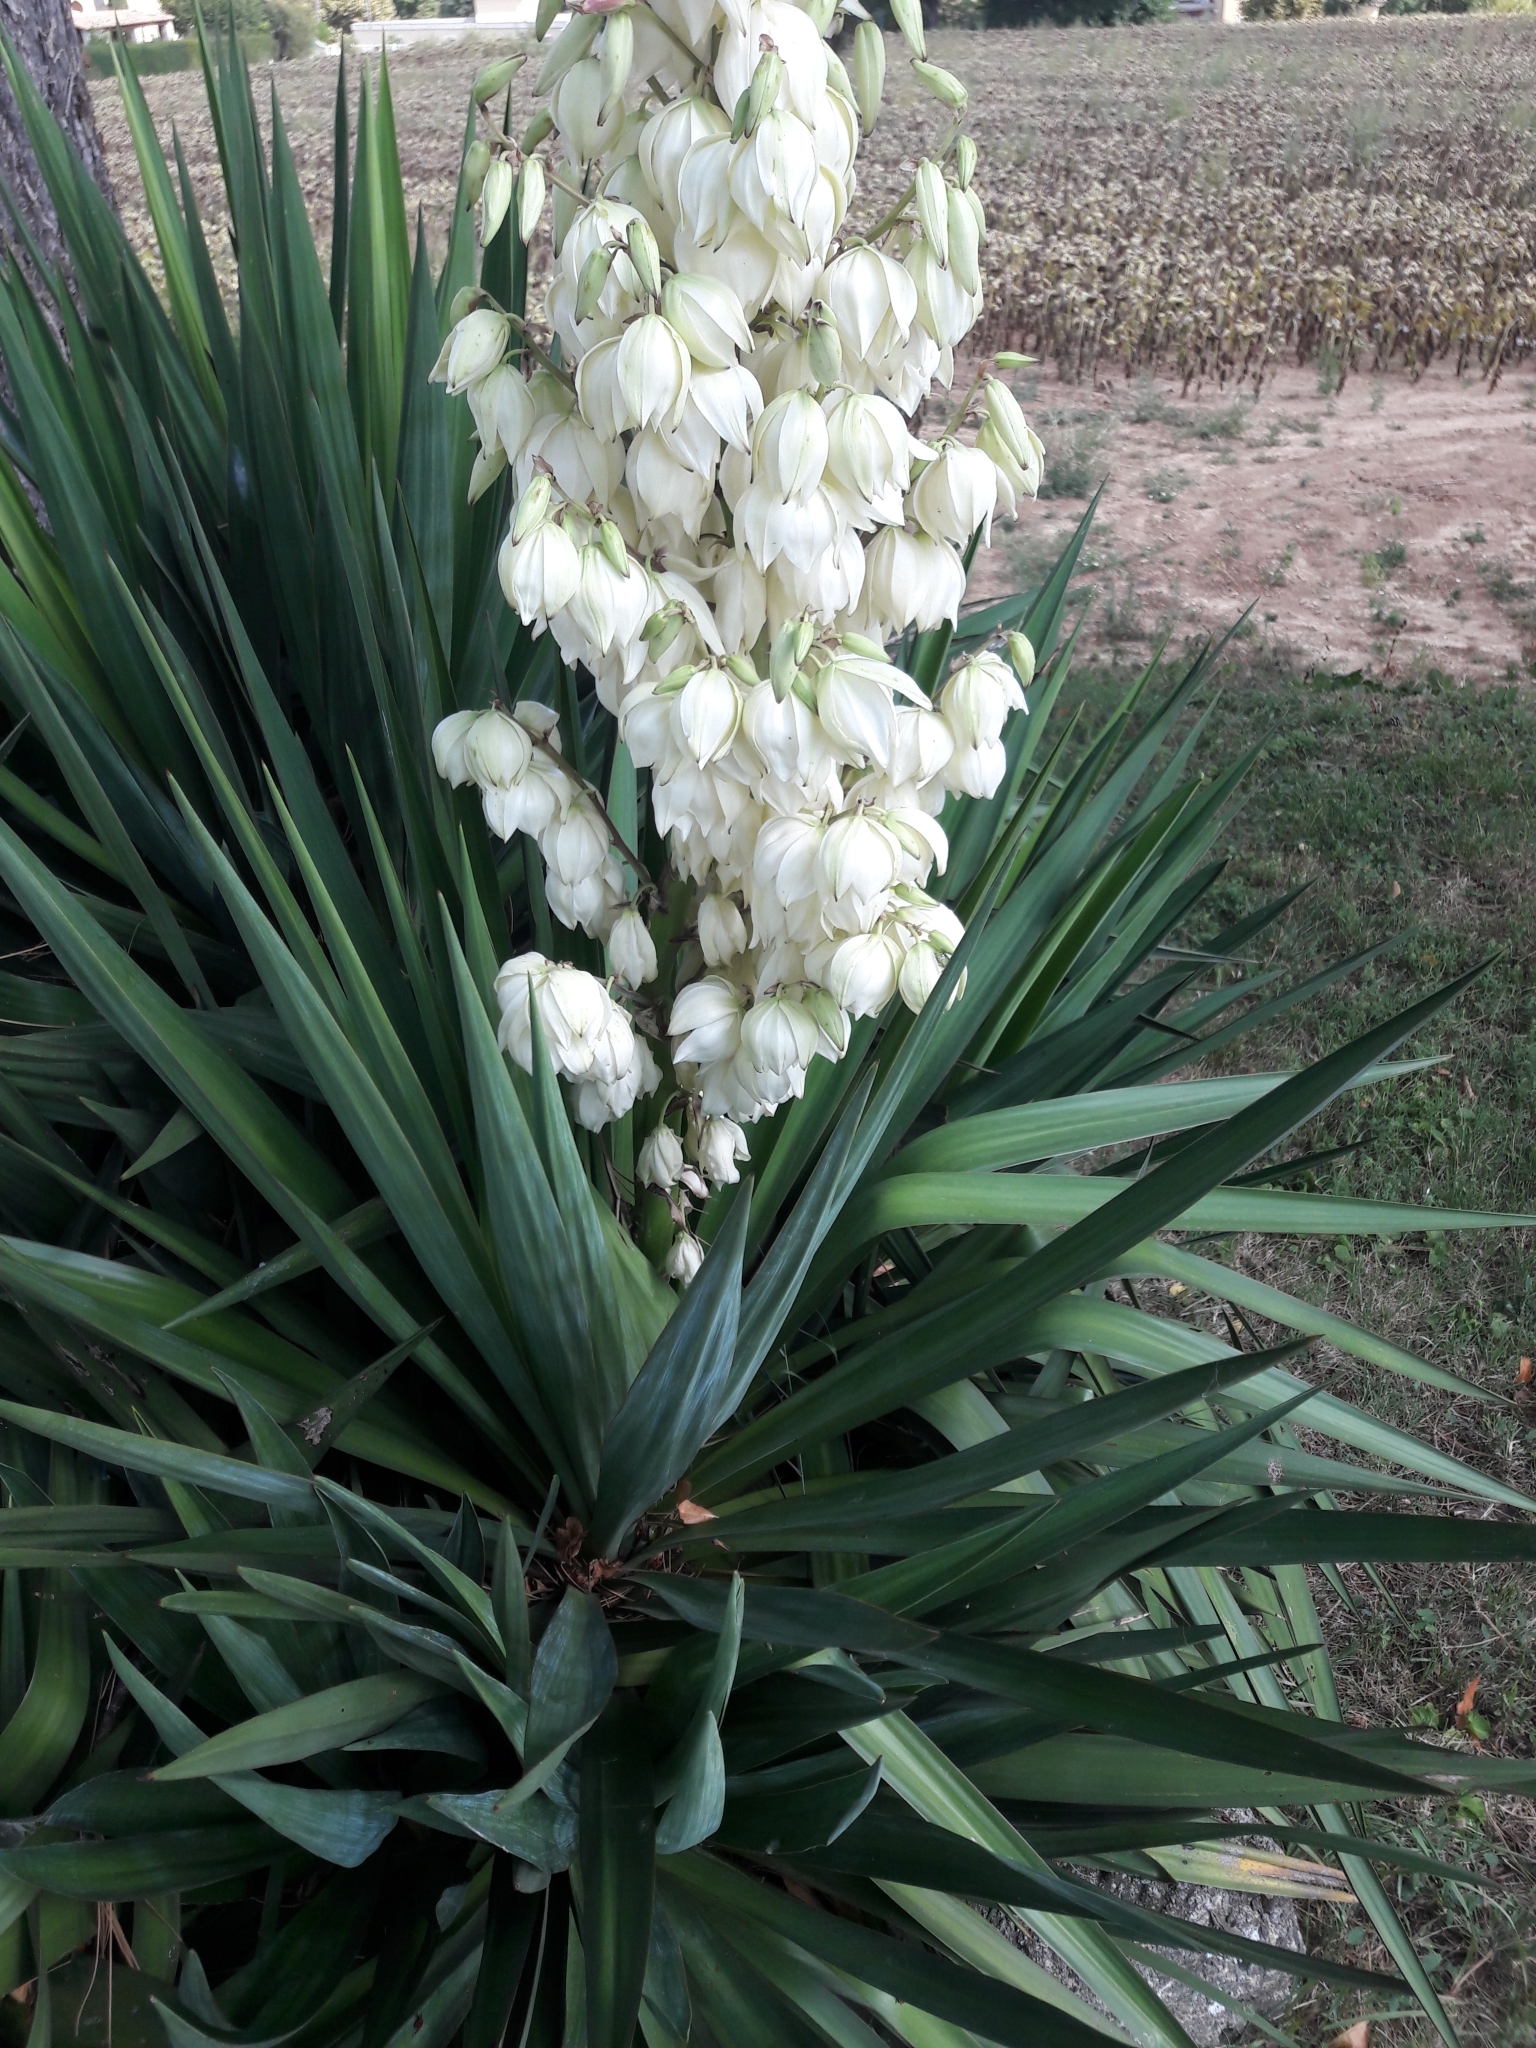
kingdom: Plantae
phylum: Tracheophyta
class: Liliopsida
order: Asparagales
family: Asparagaceae
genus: Yucca
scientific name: Yucca gloriosa
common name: Spanish-dagger
